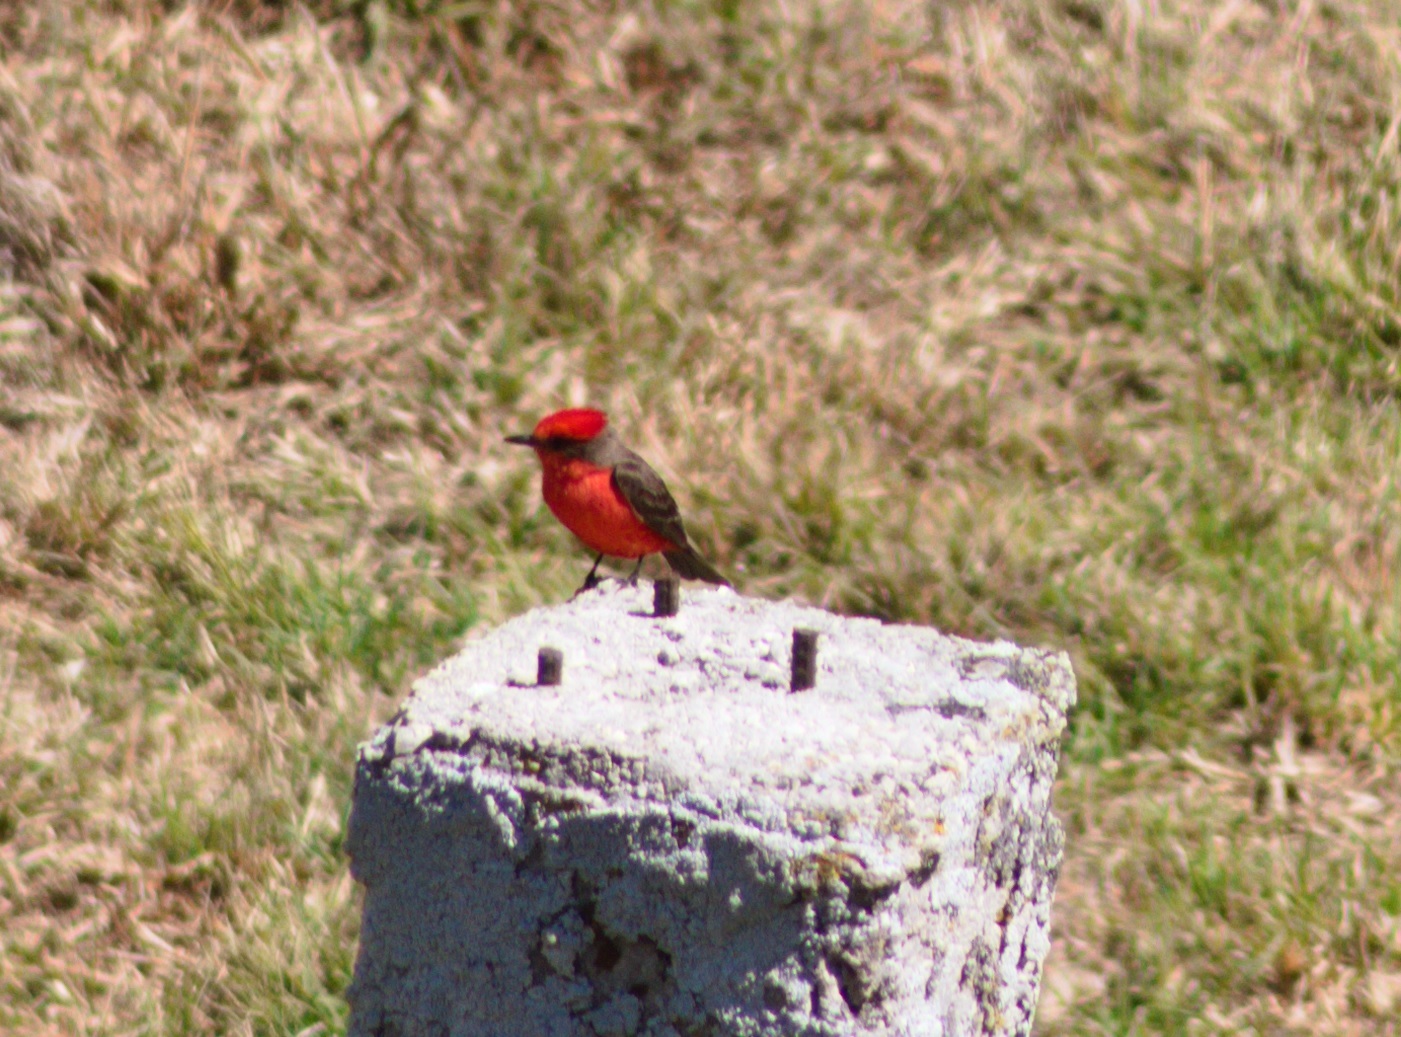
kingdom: Animalia
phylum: Chordata
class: Aves
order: Passeriformes
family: Tyrannidae
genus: Pyrocephalus
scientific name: Pyrocephalus rubinus
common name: Vermilion flycatcher
